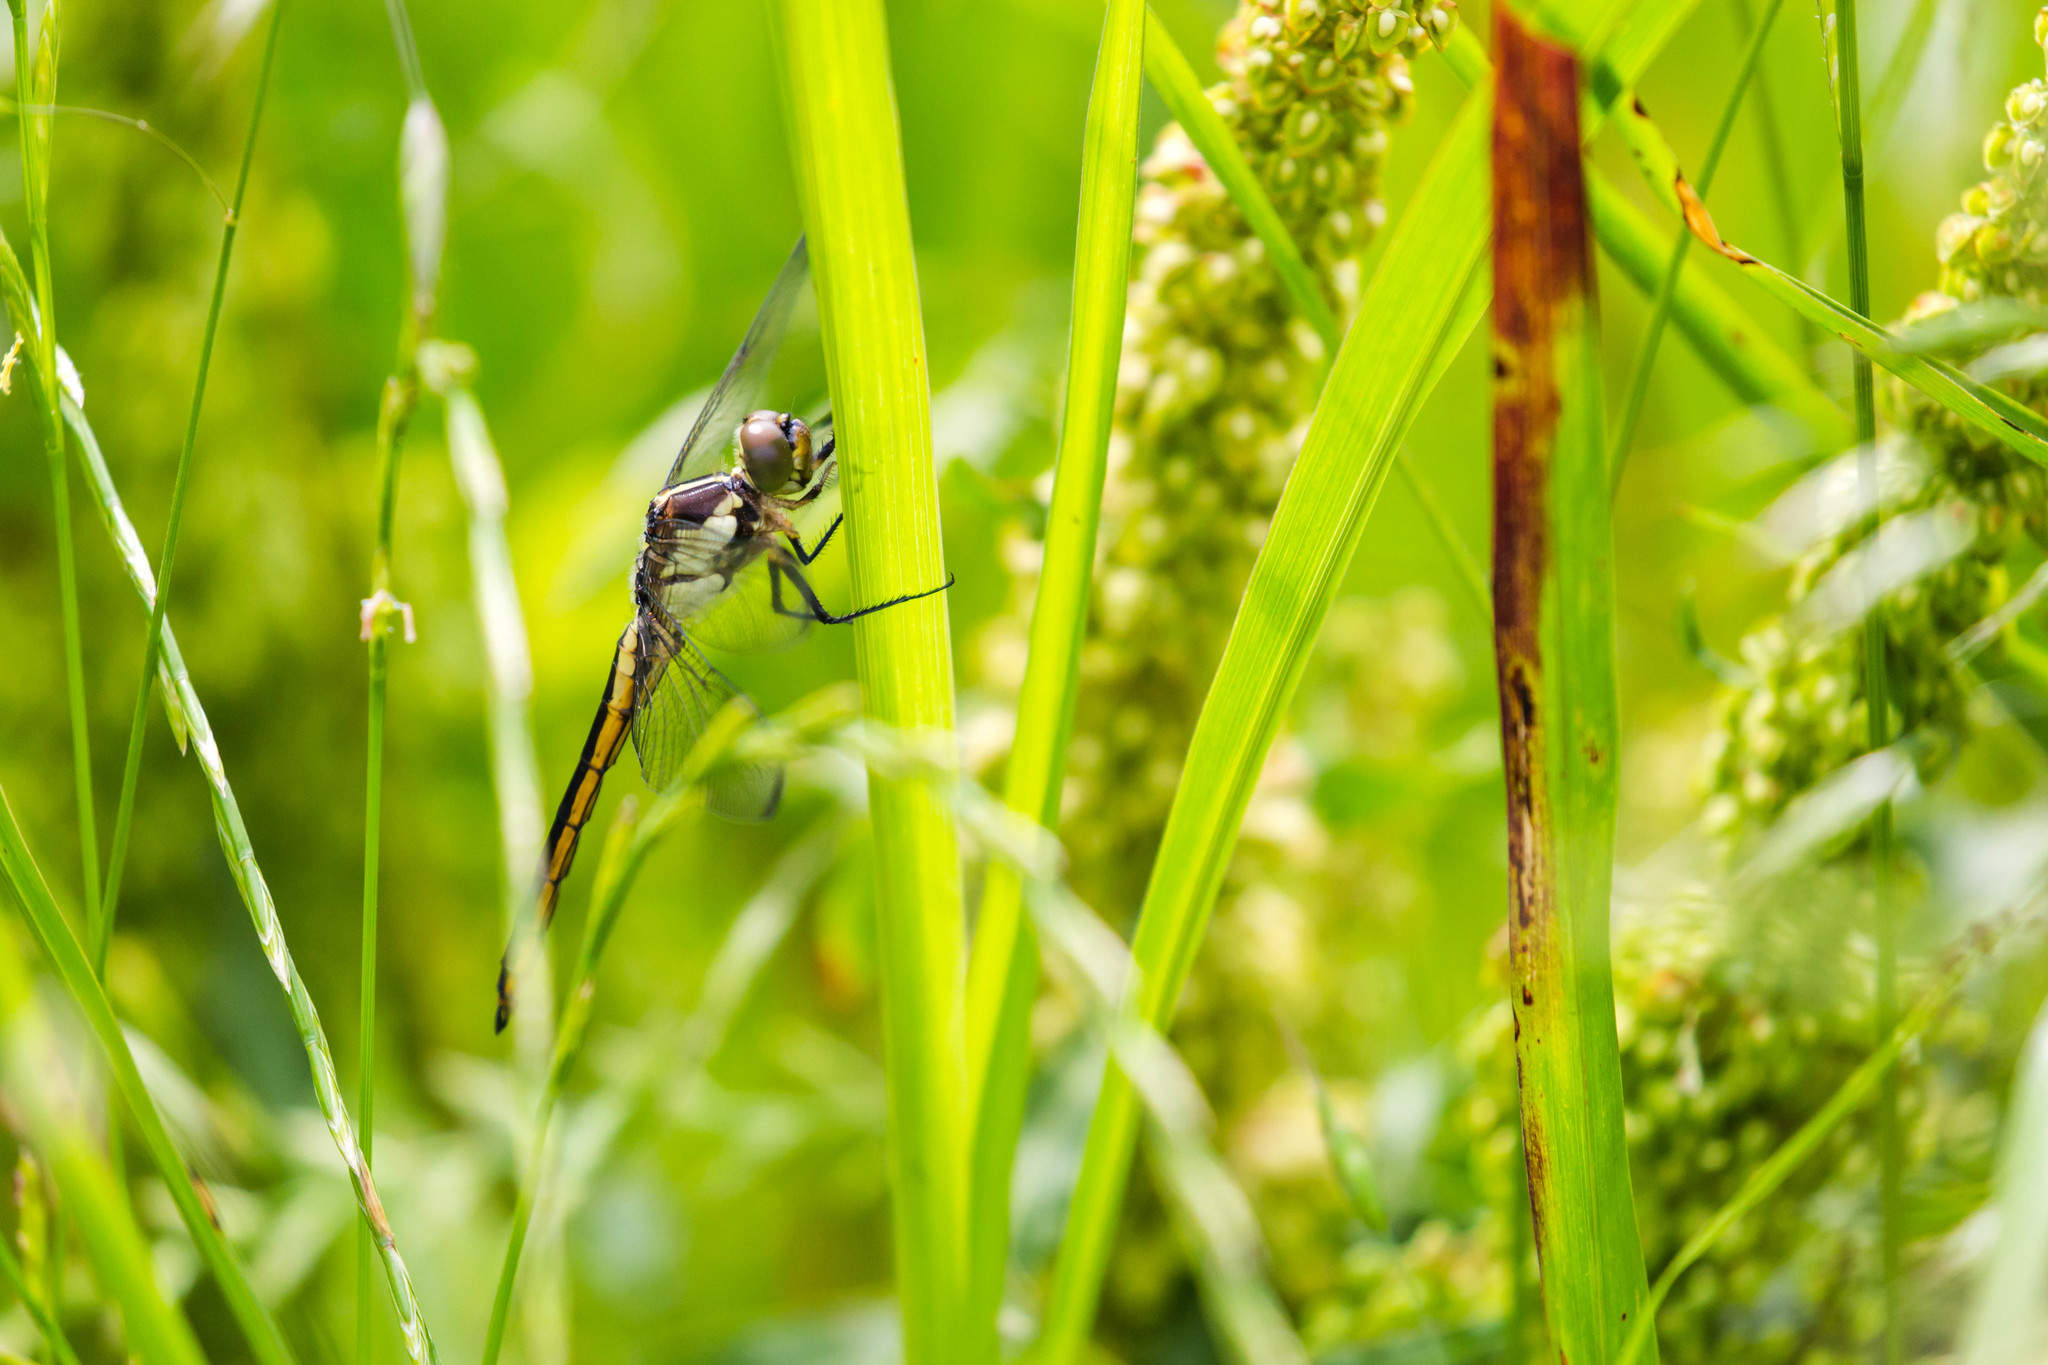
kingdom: Animalia
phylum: Arthropoda
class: Insecta
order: Odonata
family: Libellulidae
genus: Libellula
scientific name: Libellula incesta
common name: Slaty skimmer
